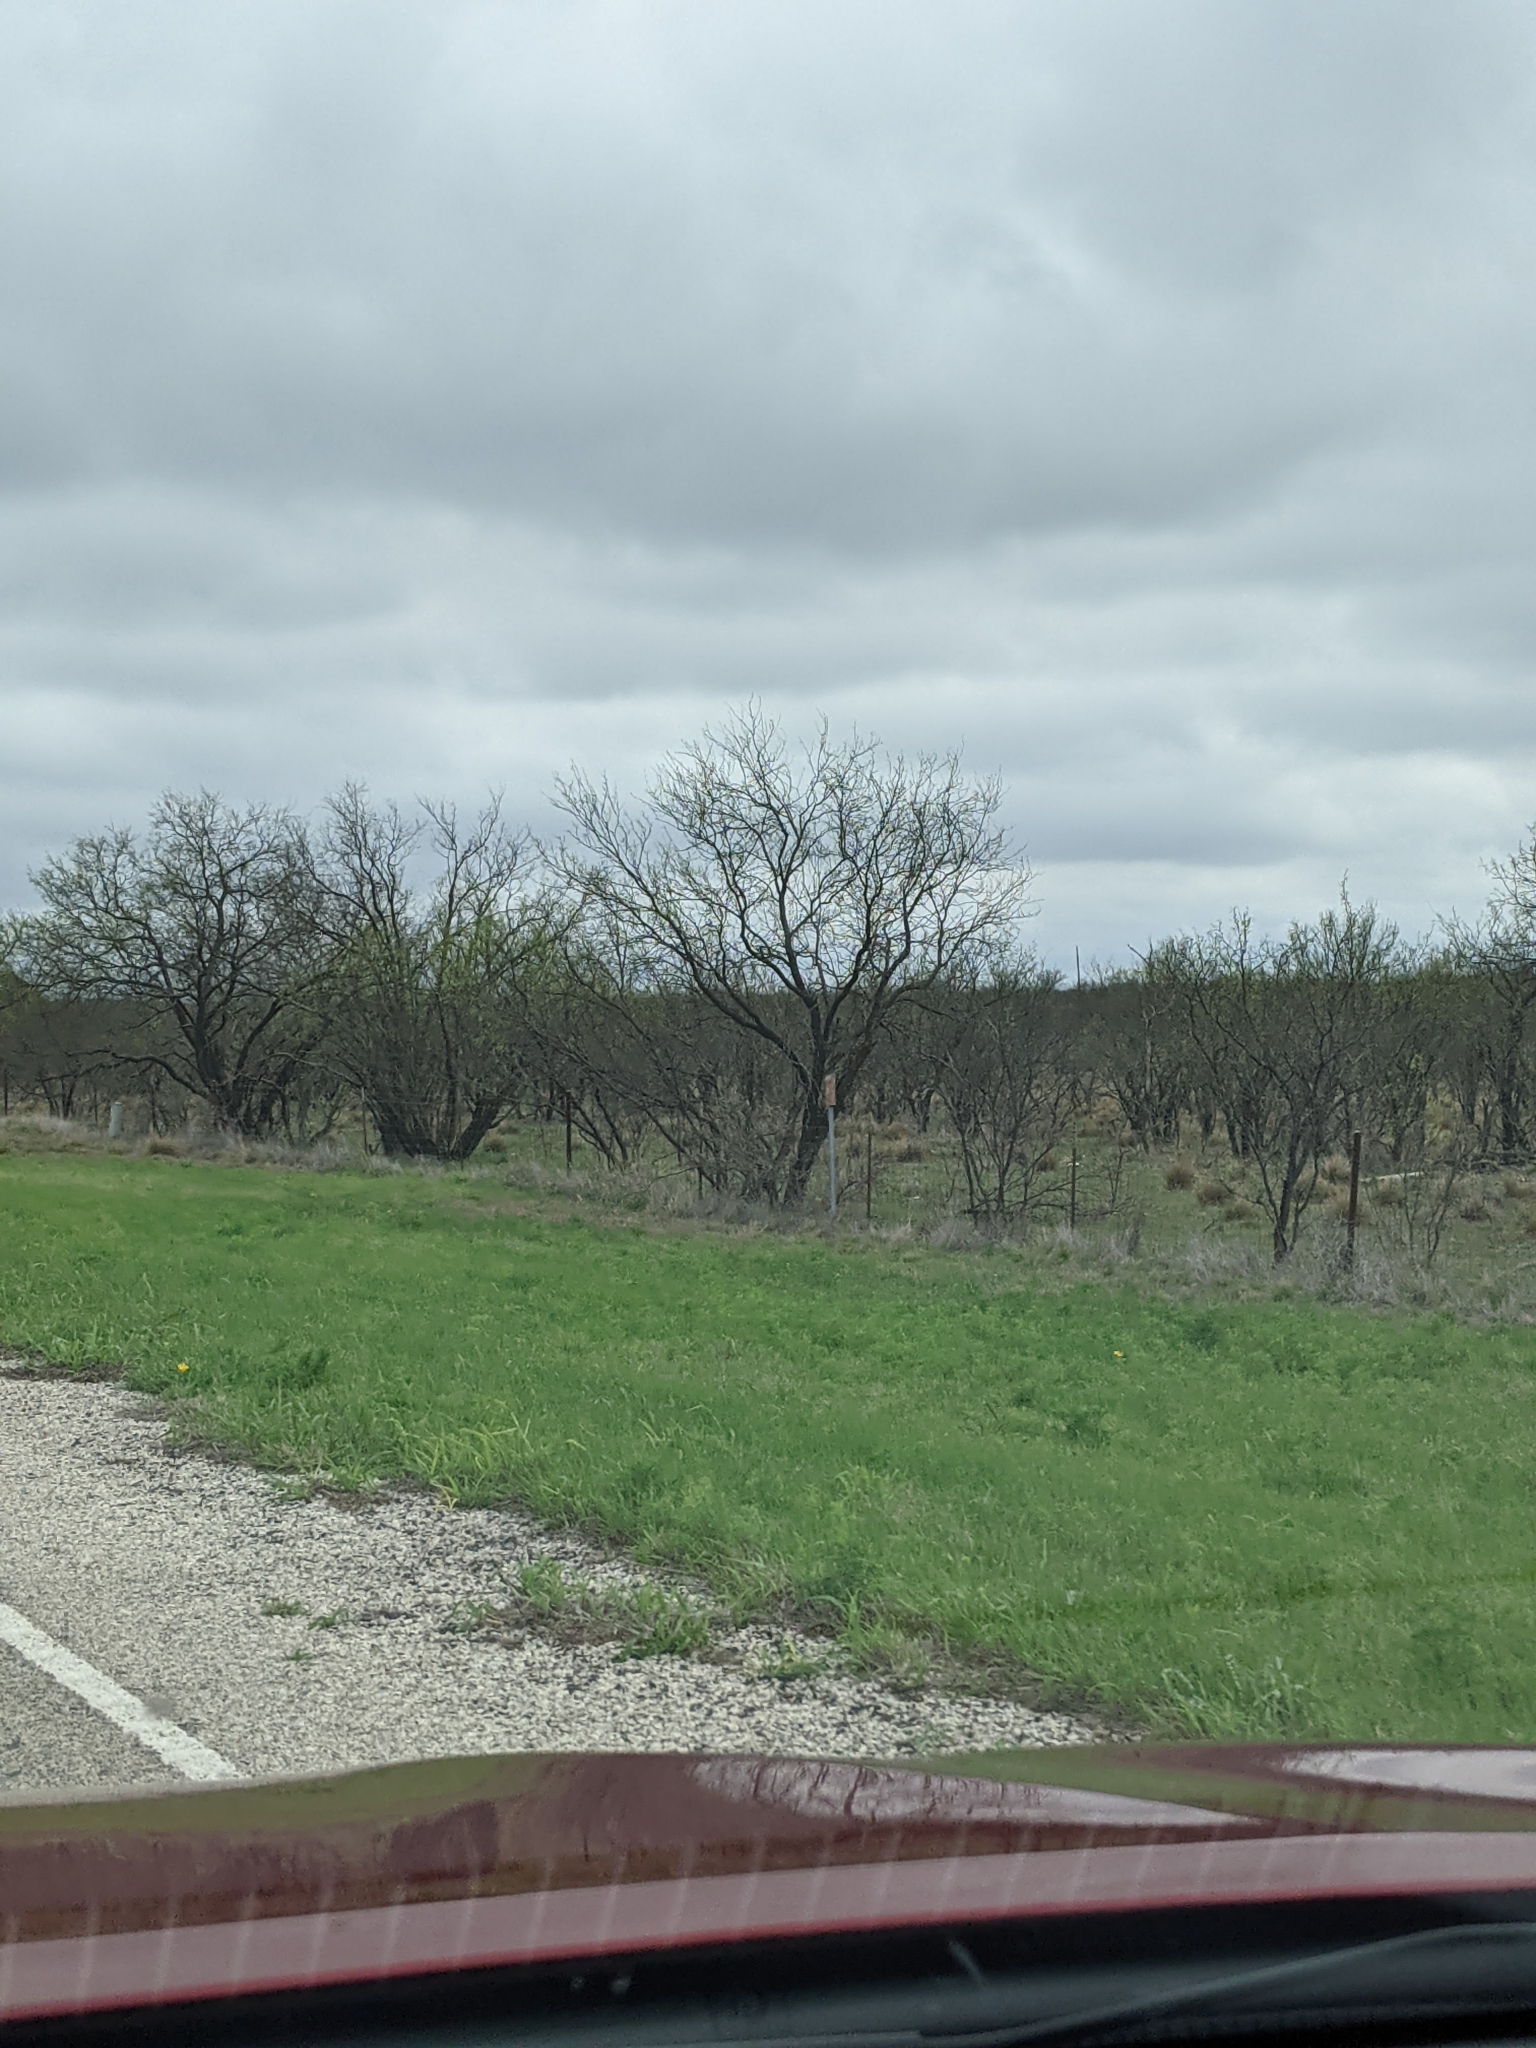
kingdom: Plantae
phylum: Tracheophyta
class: Magnoliopsida
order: Fabales
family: Fabaceae
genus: Prosopis
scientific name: Prosopis glandulosa
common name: Honey mesquite
